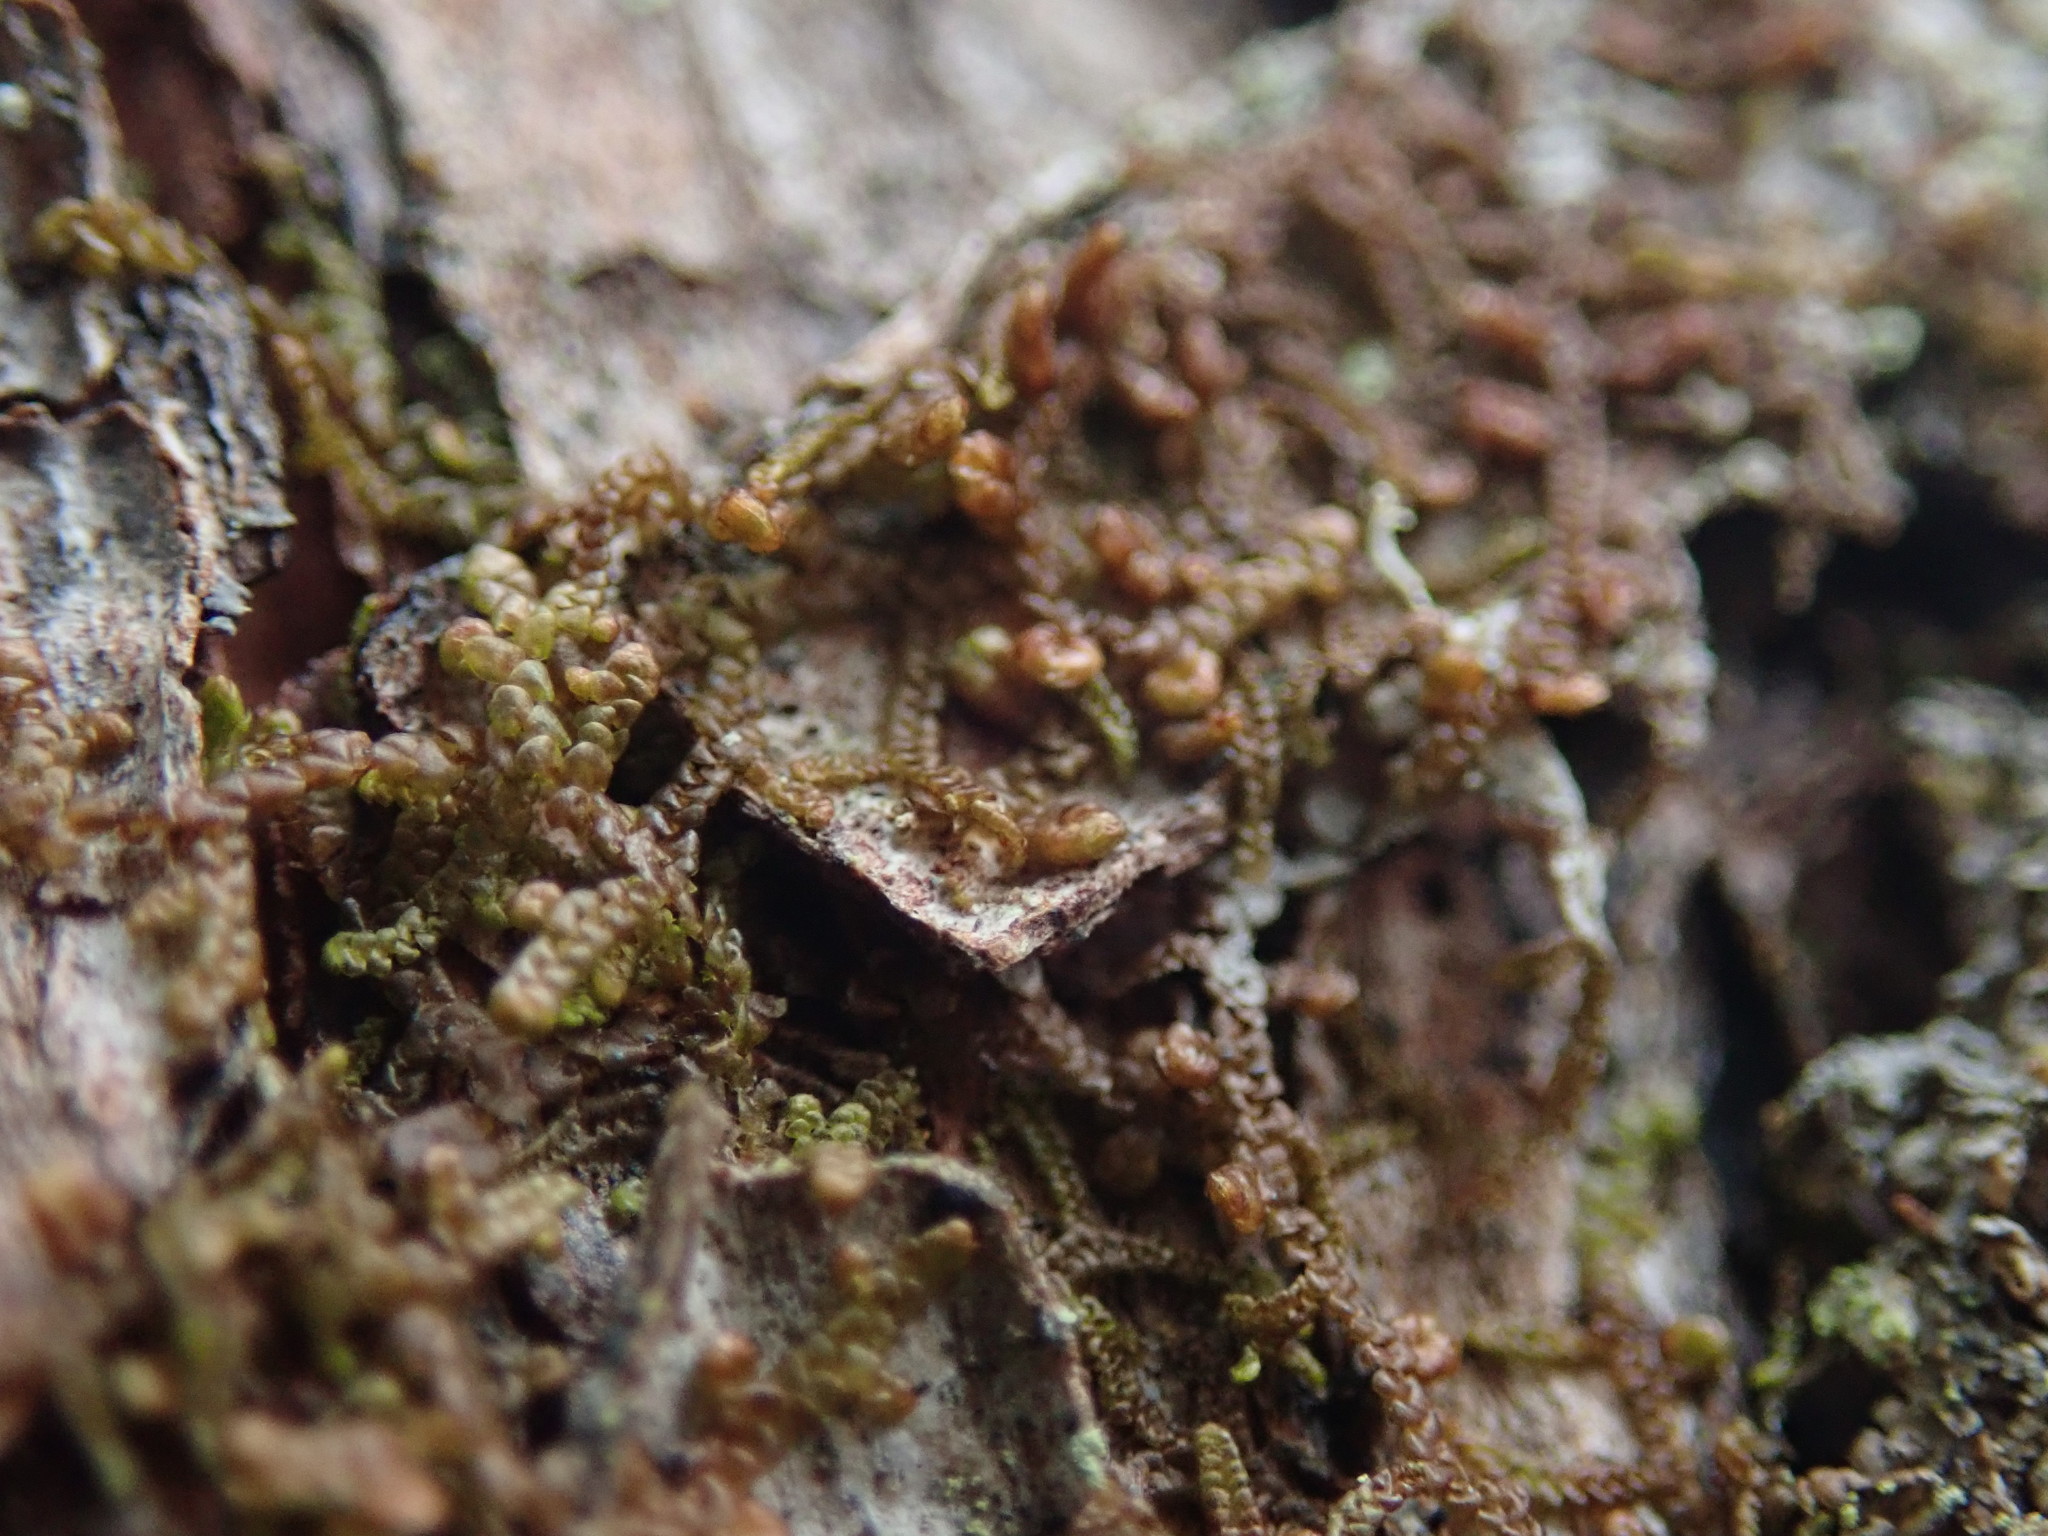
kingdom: Plantae
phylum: Marchantiophyta
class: Jungermanniopsida
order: Porellales
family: Frullaniaceae
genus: Frullania
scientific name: Frullania nisquallensis
